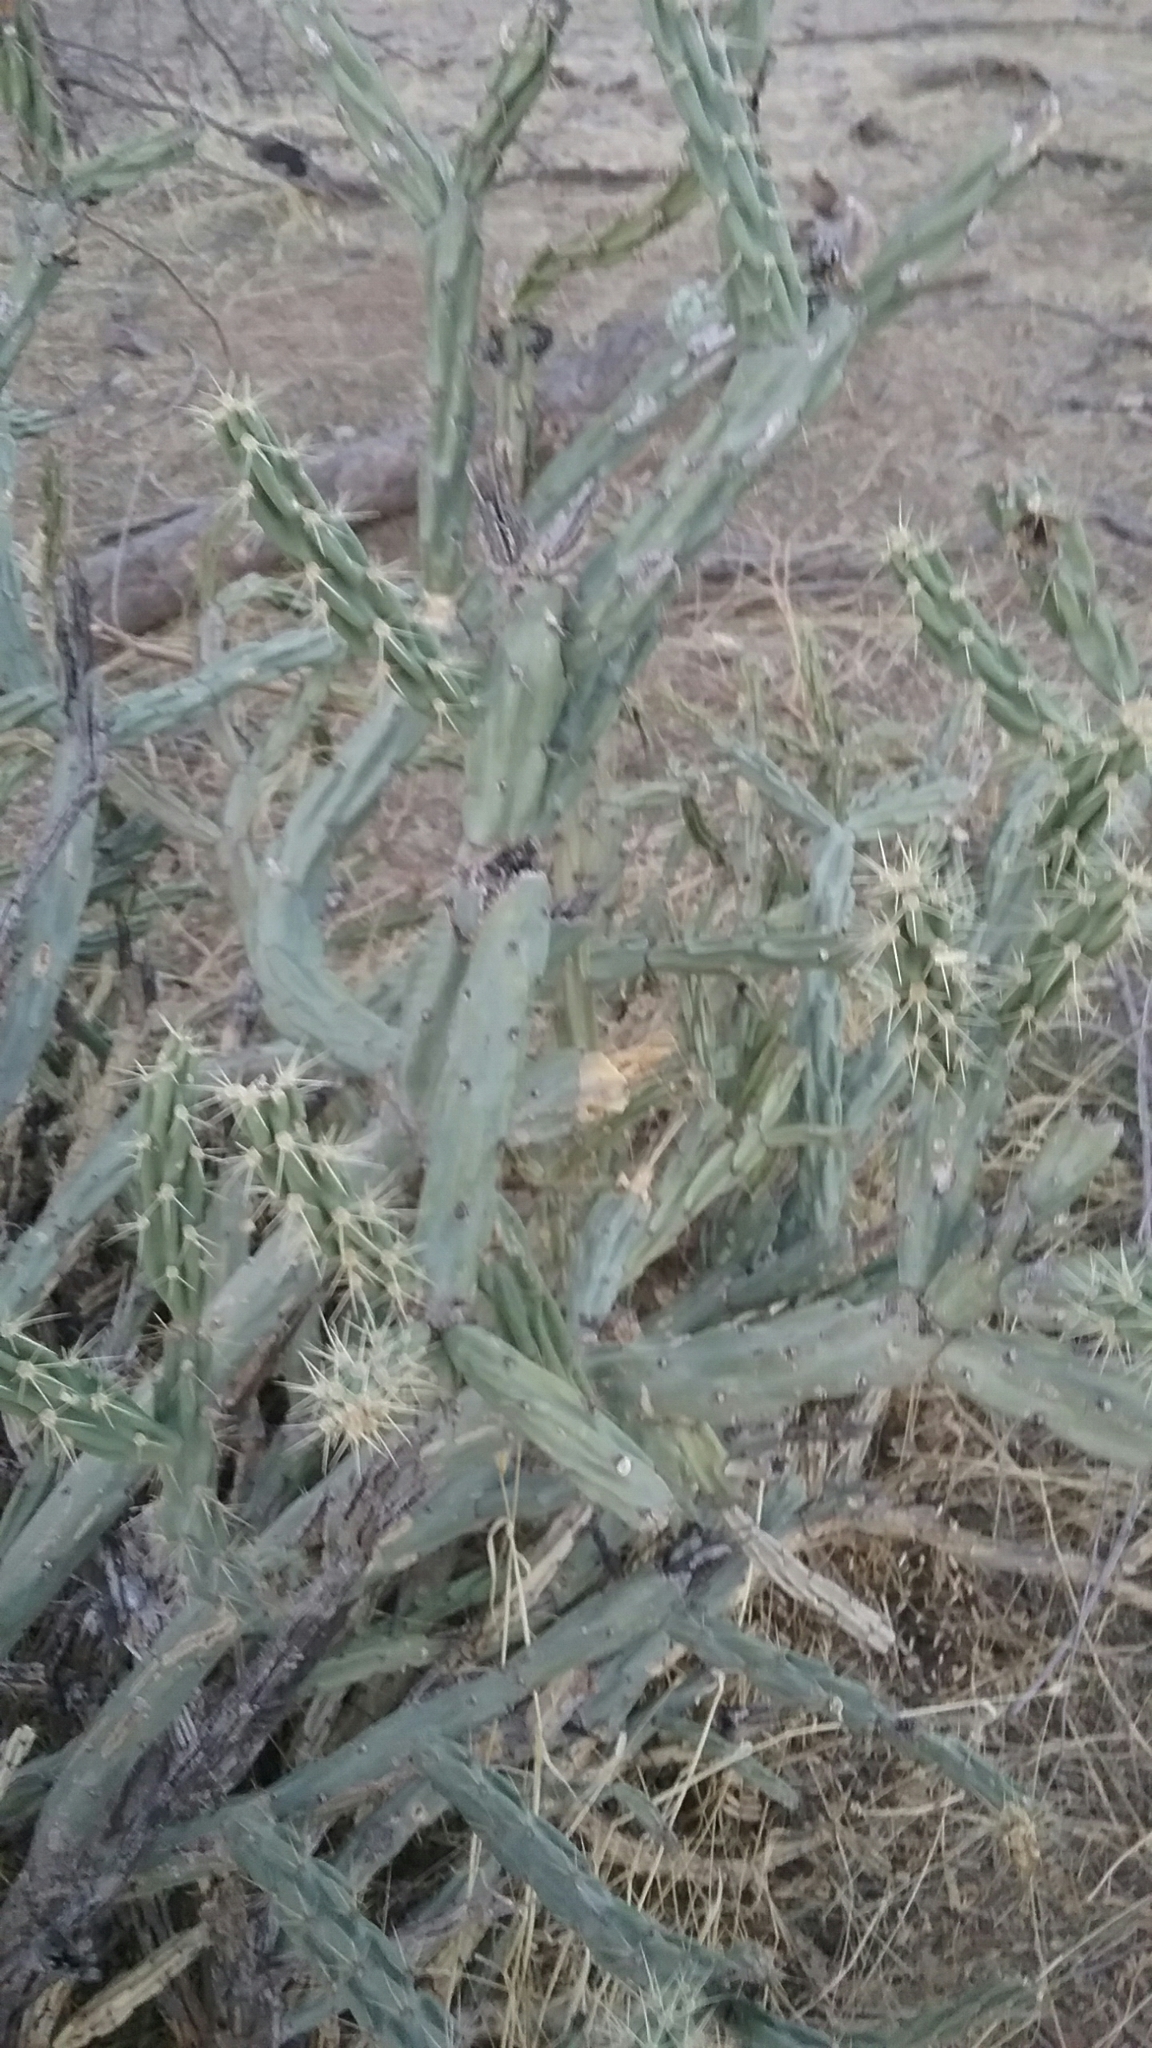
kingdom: Plantae
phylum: Tracheophyta
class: Magnoliopsida
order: Caryophyllales
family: Cactaceae
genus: Cylindropuntia
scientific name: Cylindropuntia acanthocarpa
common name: Buckhorn cholla
